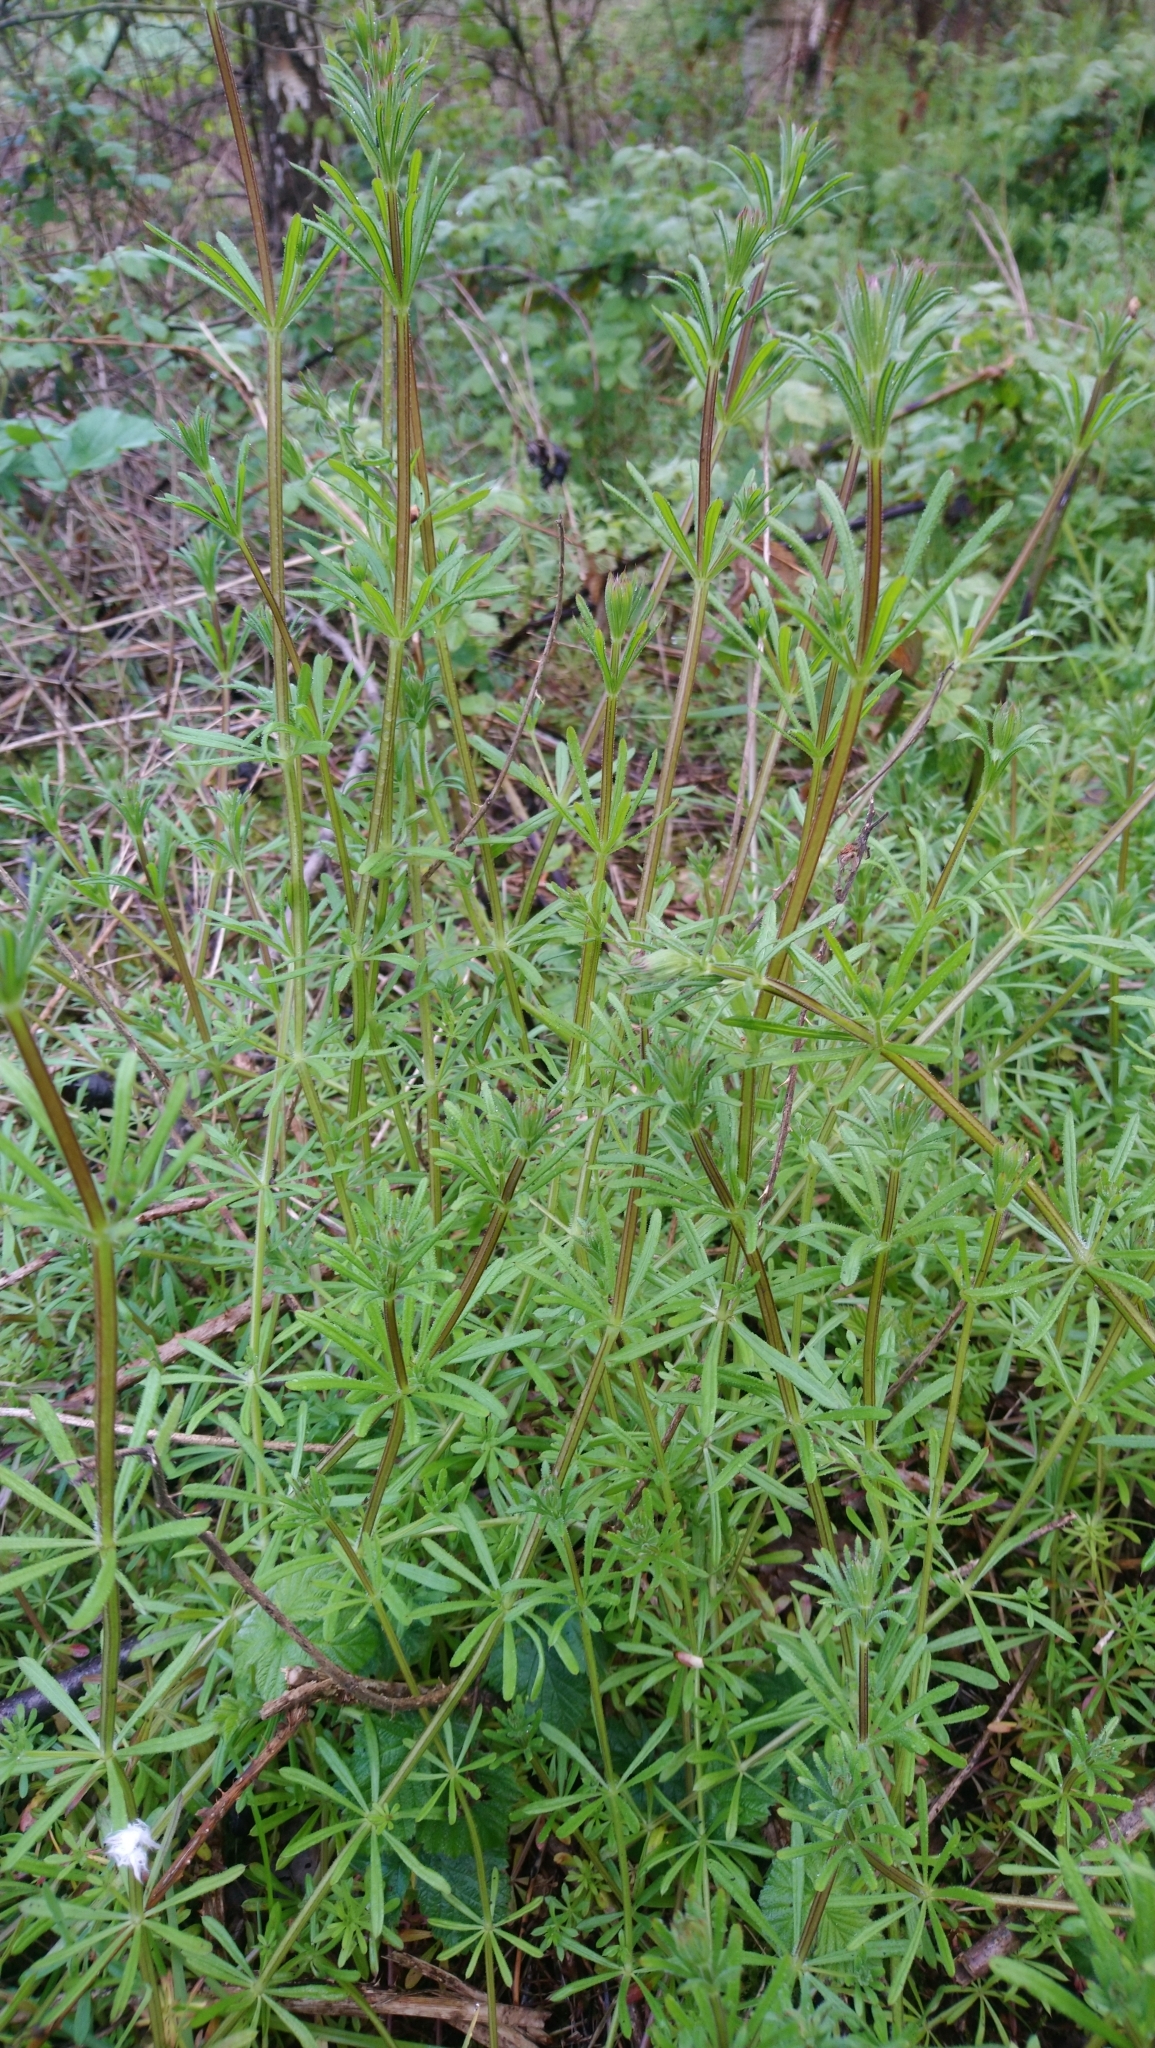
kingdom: Plantae
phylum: Tracheophyta
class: Magnoliopsida
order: Gentianales
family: Rubiaceae
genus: Galium
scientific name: Galium aparine
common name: Cleavers
